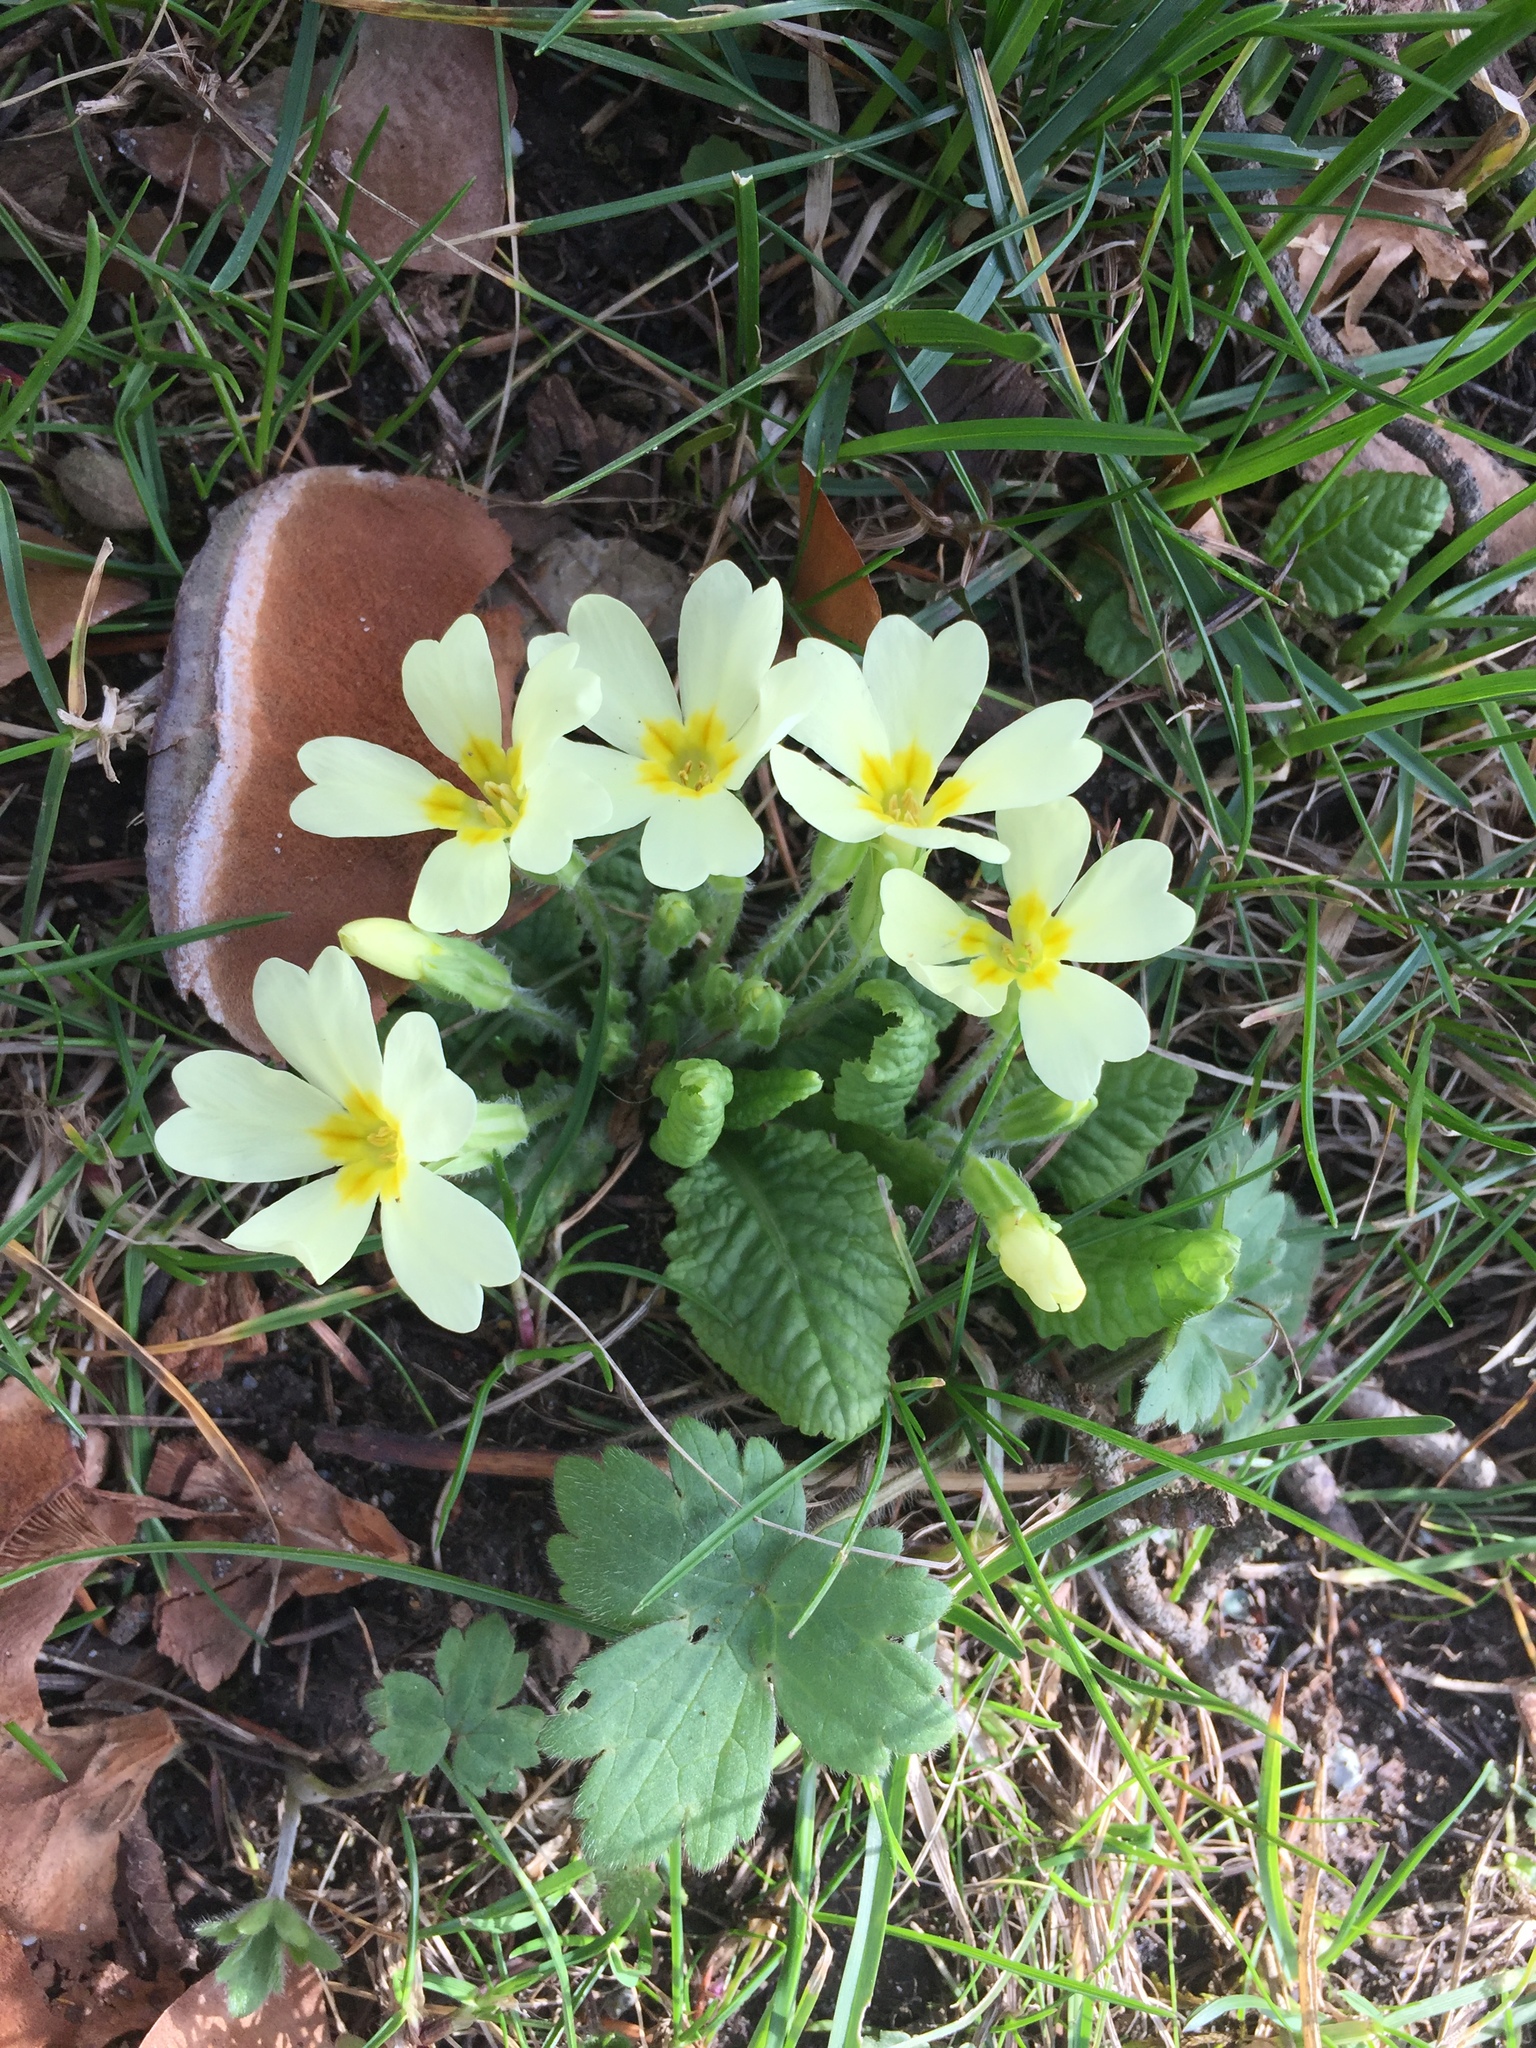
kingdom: Plantae
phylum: Tracheophyta
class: Magnoliopsida
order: Ericales
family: Primulaceae
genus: Primula
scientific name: Primula vulgaris
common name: Primrose
